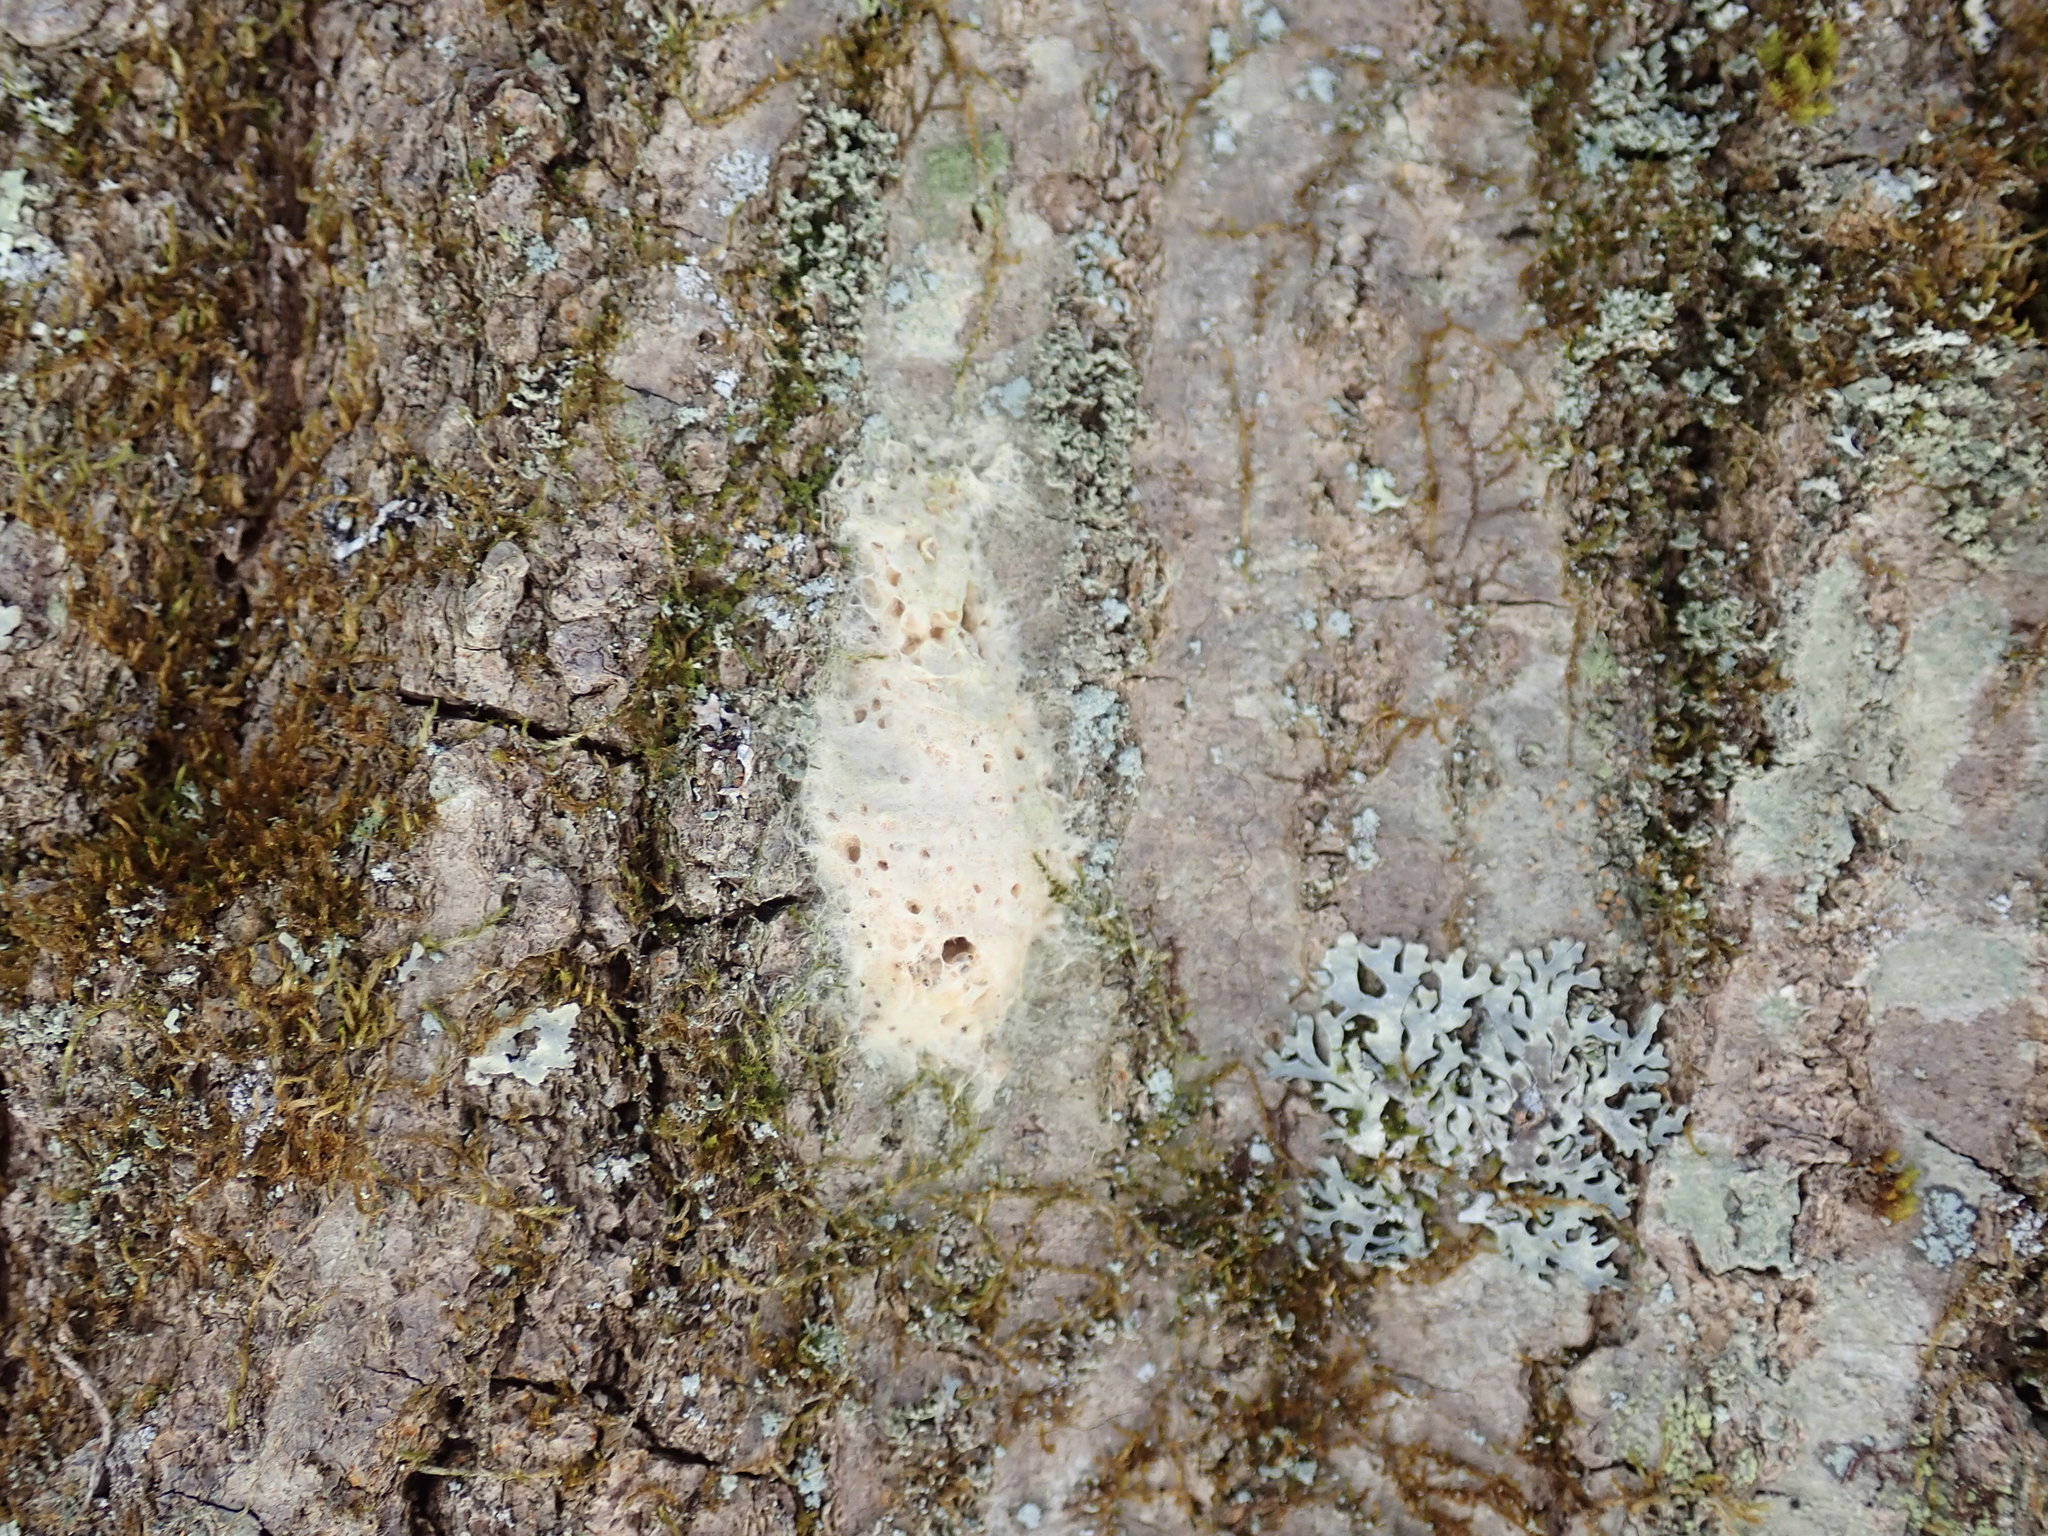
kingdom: Animalia
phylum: Arthropoda
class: Insecta
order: Lepidoptera
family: Erebidae
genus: Lymantria
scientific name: Lymantria dispar
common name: Gypsy moth
